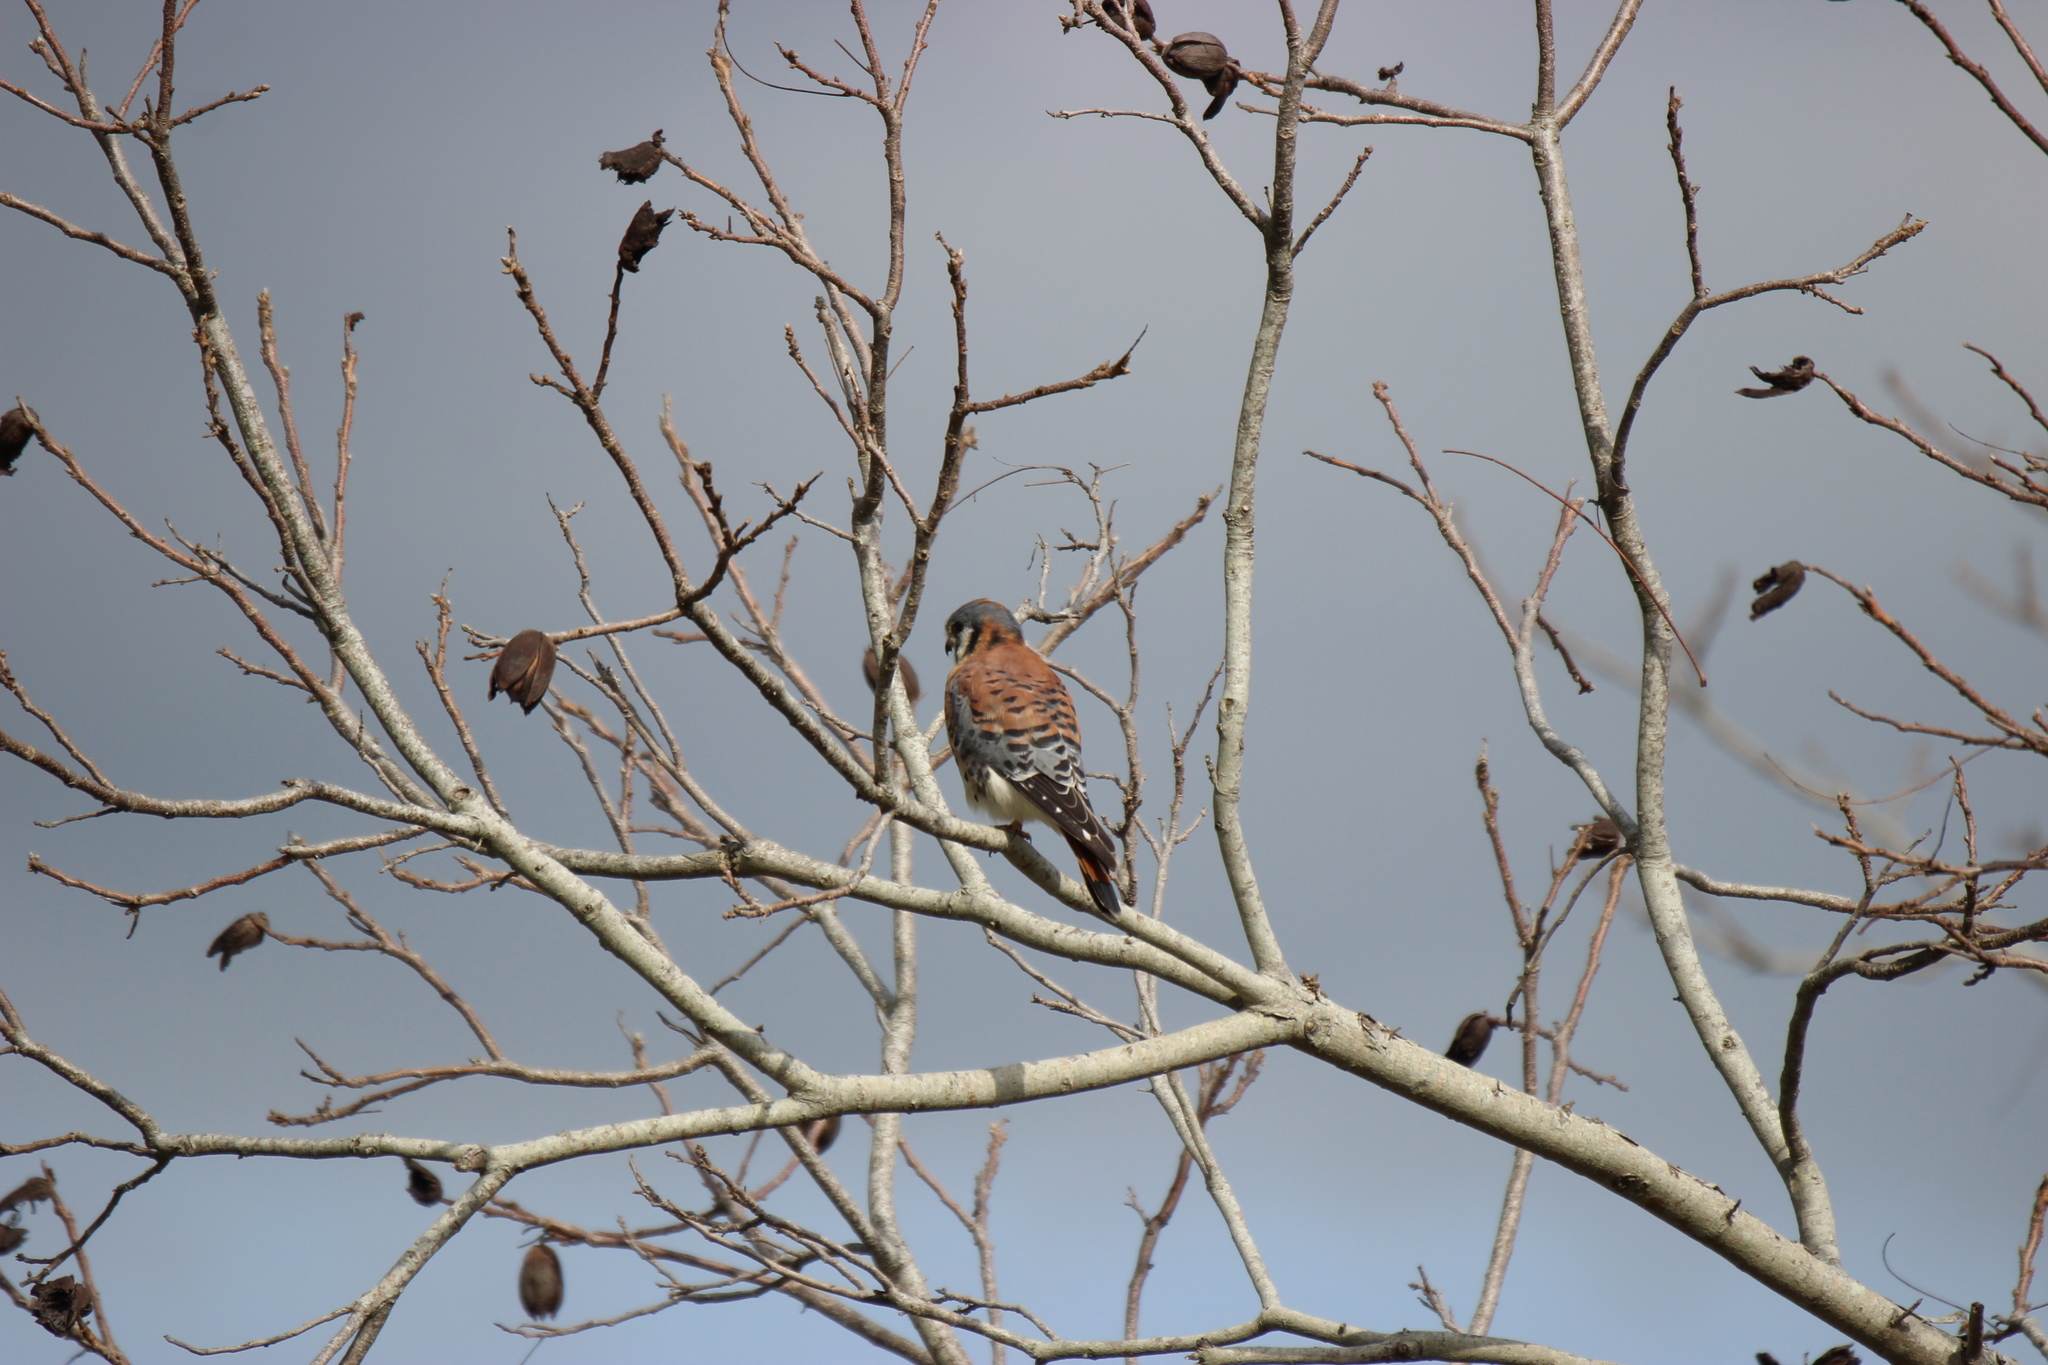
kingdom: Animalia
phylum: Chordata
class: Aves
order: Falconiformes
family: Falconidae
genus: Falco
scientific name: Falco sparverius
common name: American kestrel
